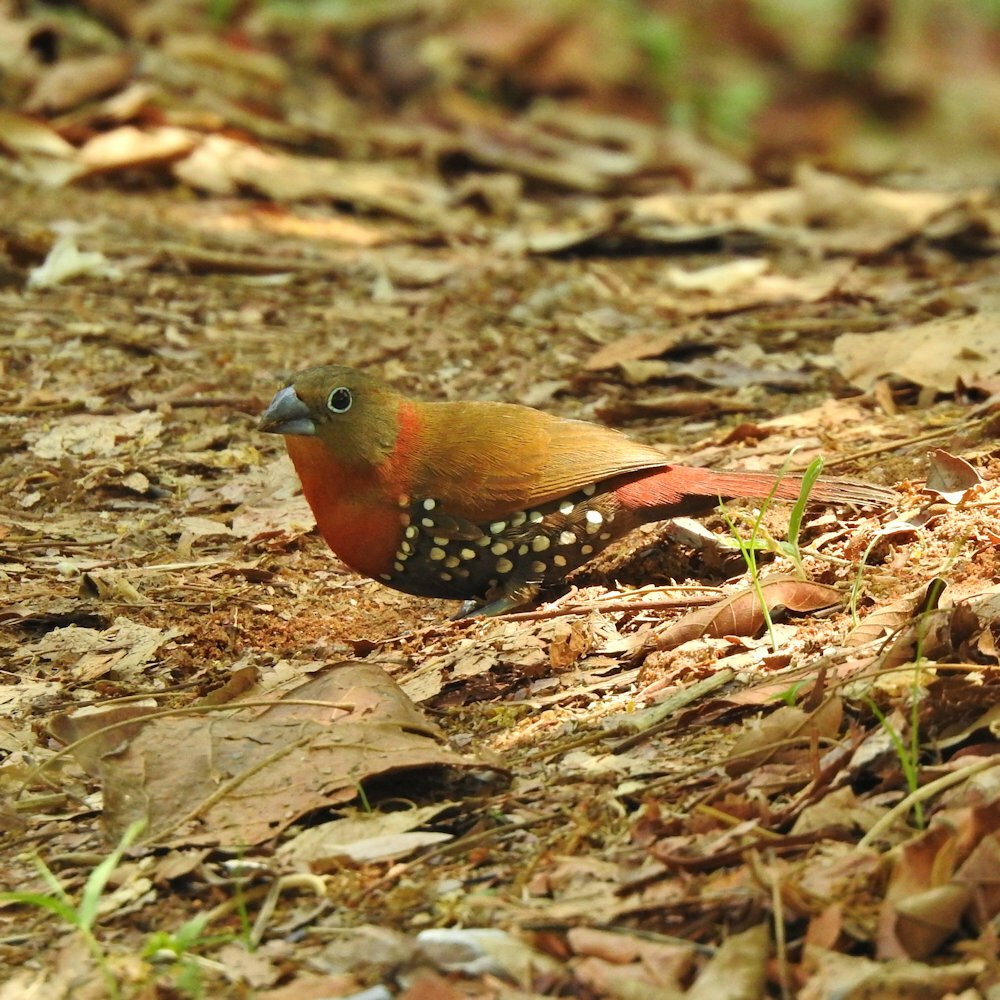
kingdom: Animalia
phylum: Chordata
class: Aves
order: Passeriformes
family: Estrildidae
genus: Hypargos
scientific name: Hypargos niveoguttatus
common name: Red-throated twinspot
